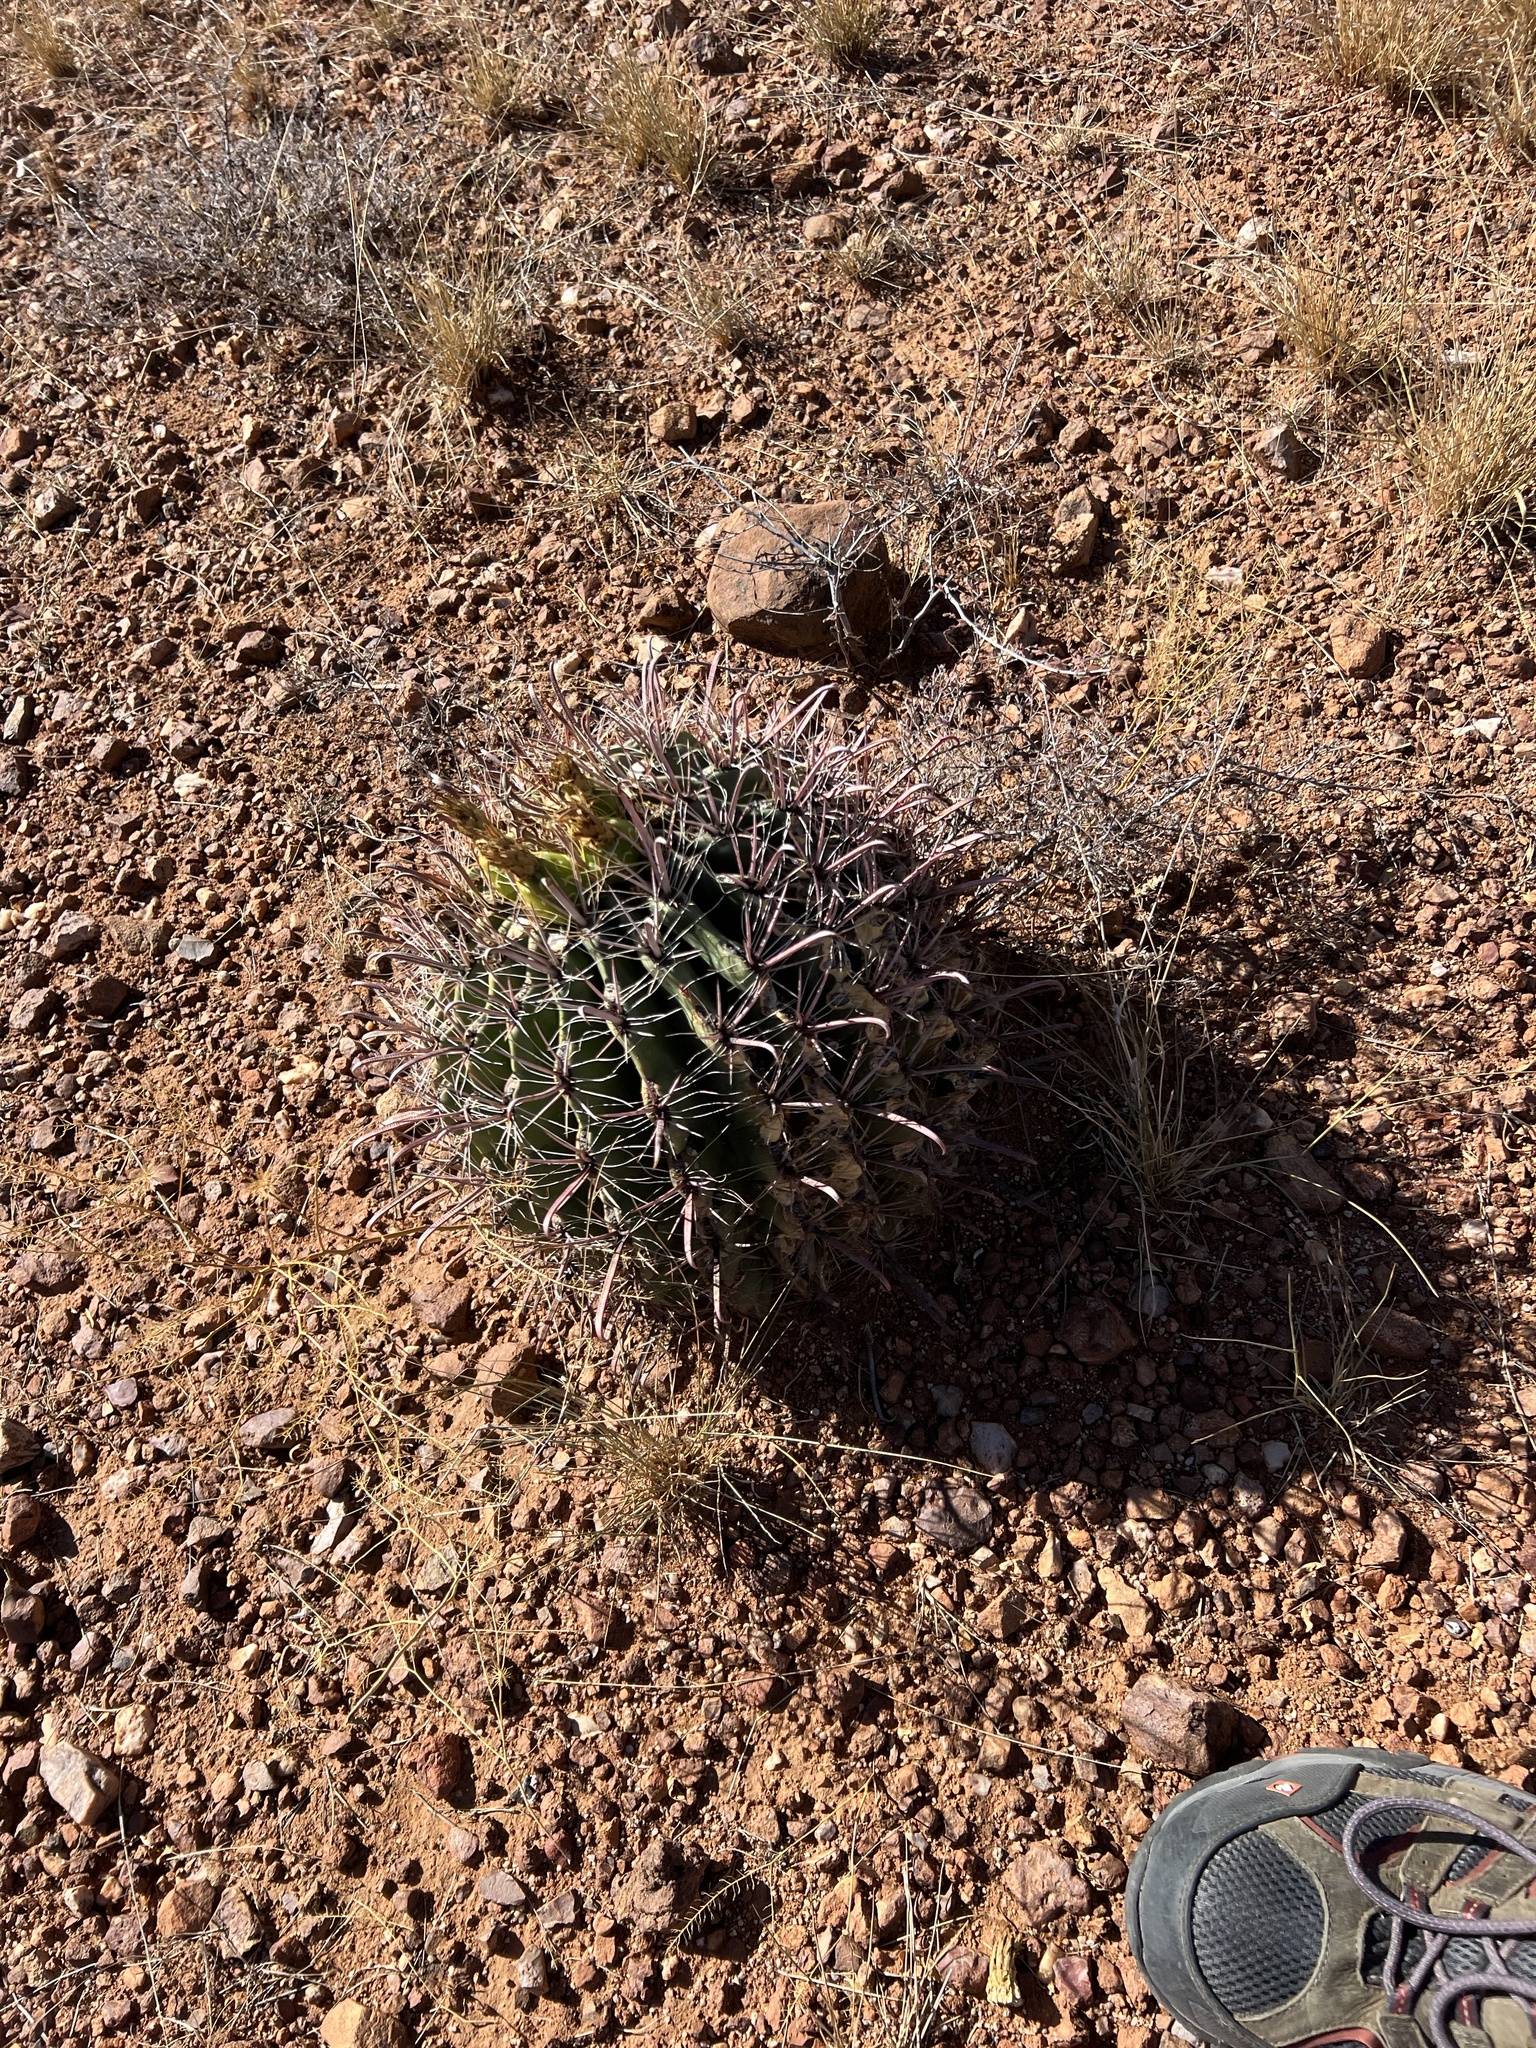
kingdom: Plantae
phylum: Tracheophyta
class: Magnoliopsida
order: Caryophyllales
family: Cactaceae
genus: Ferocactus
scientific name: Ferocactus wislizeni
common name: Candy barrel cactus
